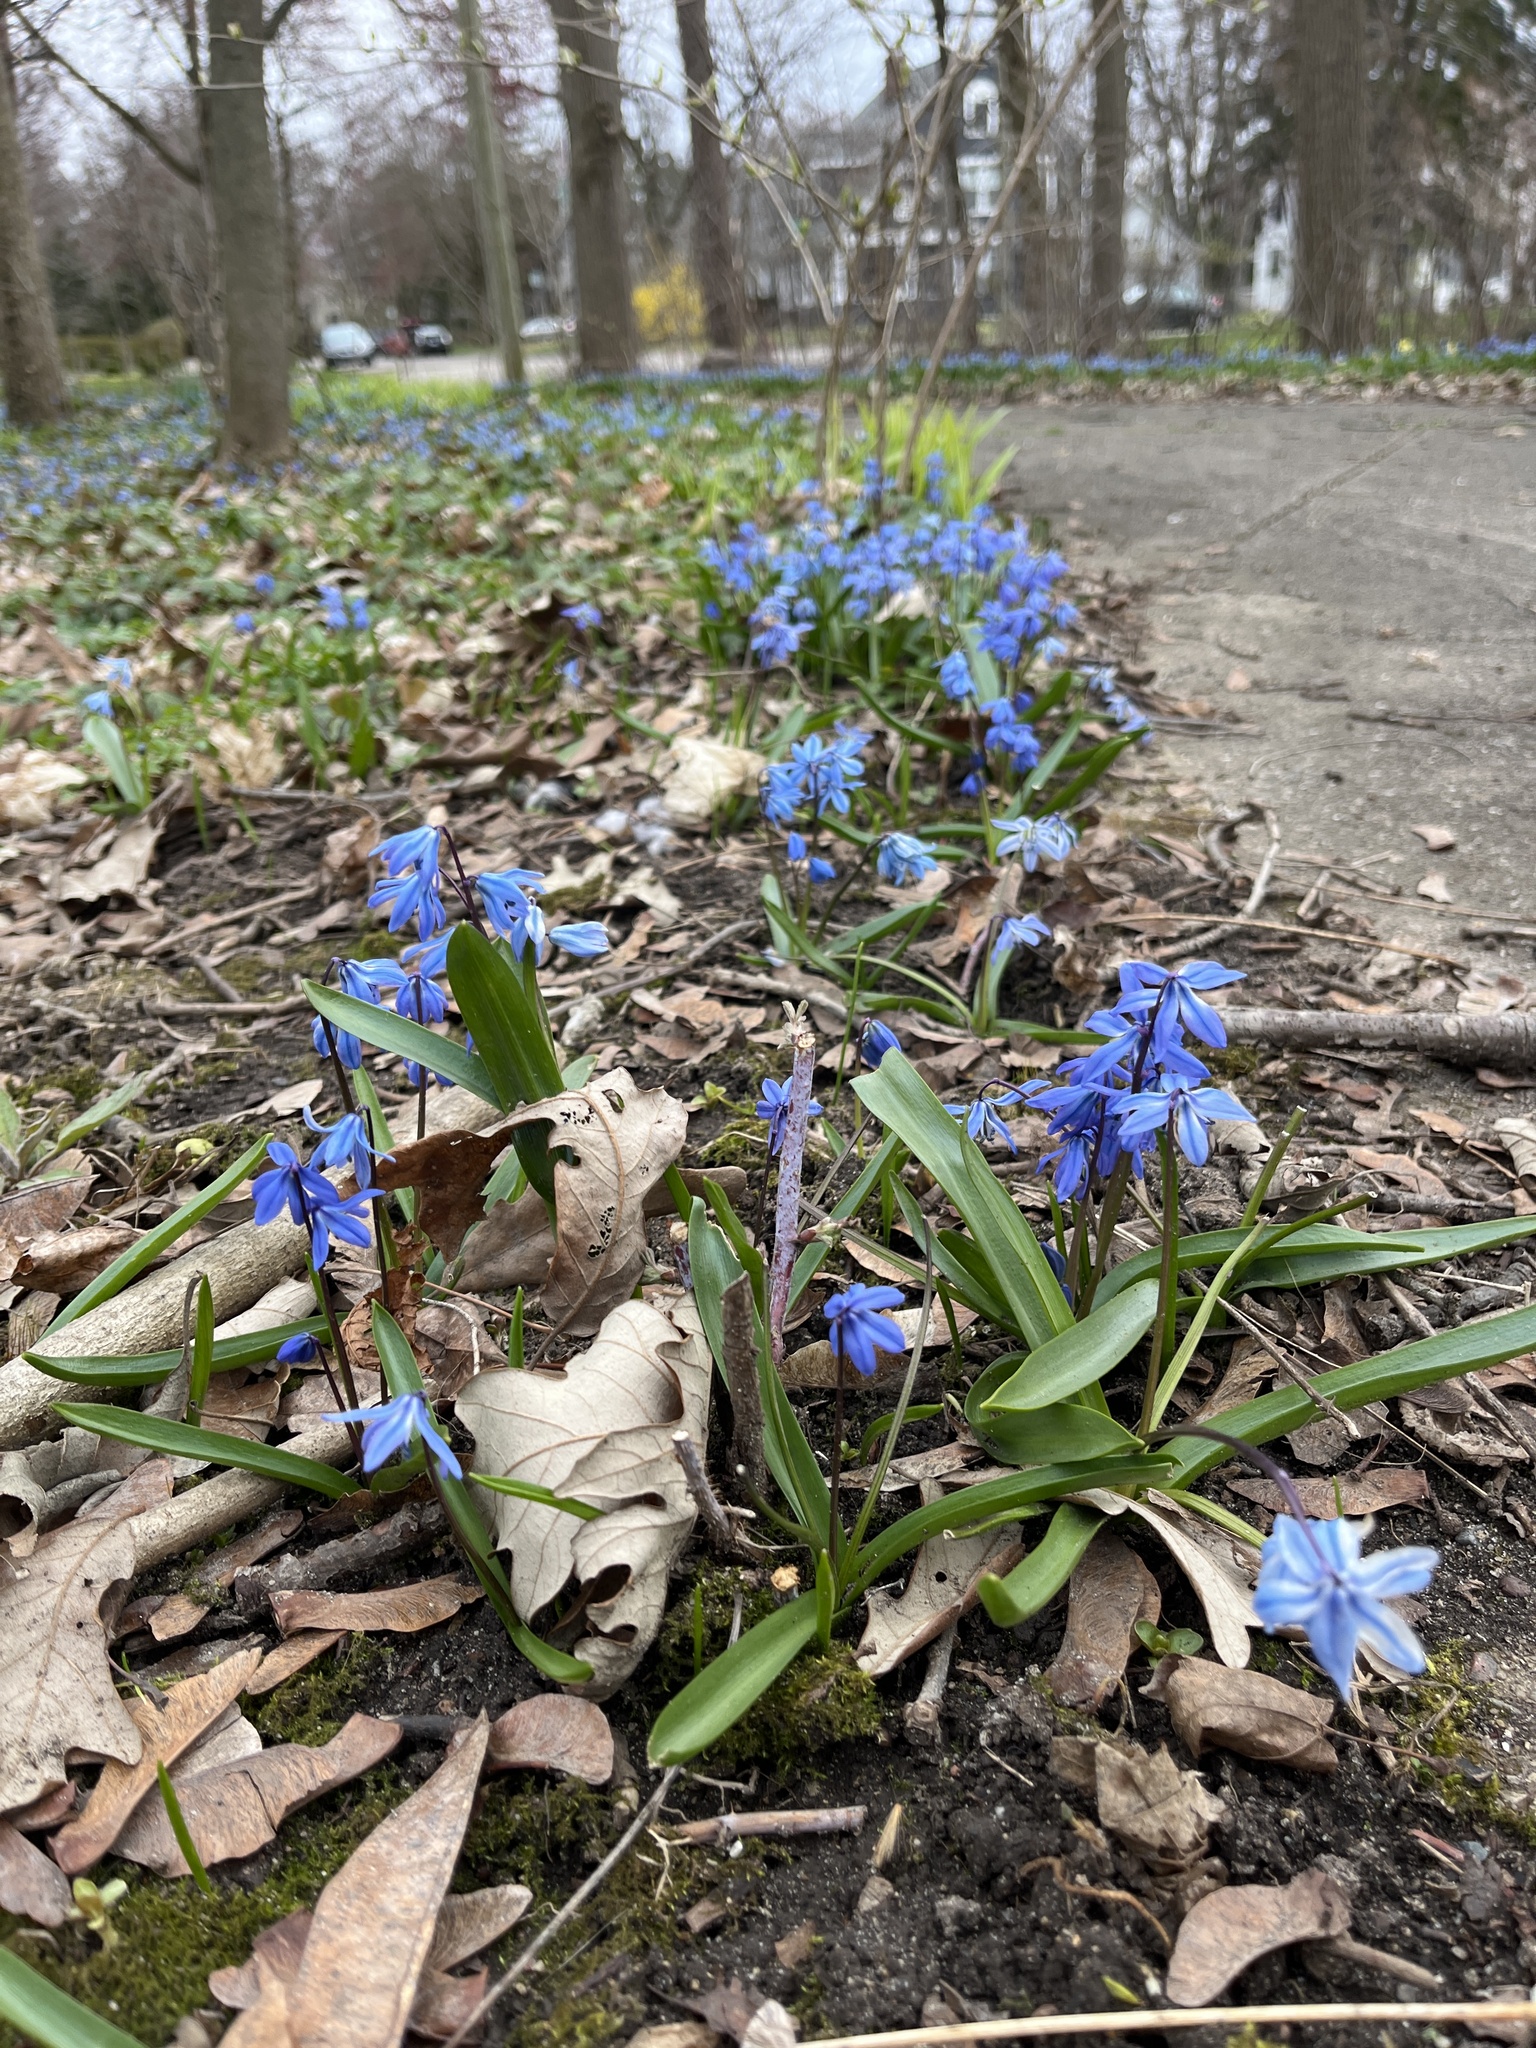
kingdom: Plantae
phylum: Tracheophyta
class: Liliopsida
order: Asparagales
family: Asparagaceae
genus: Scilla
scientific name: Scilla siberica
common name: Siberian squill
